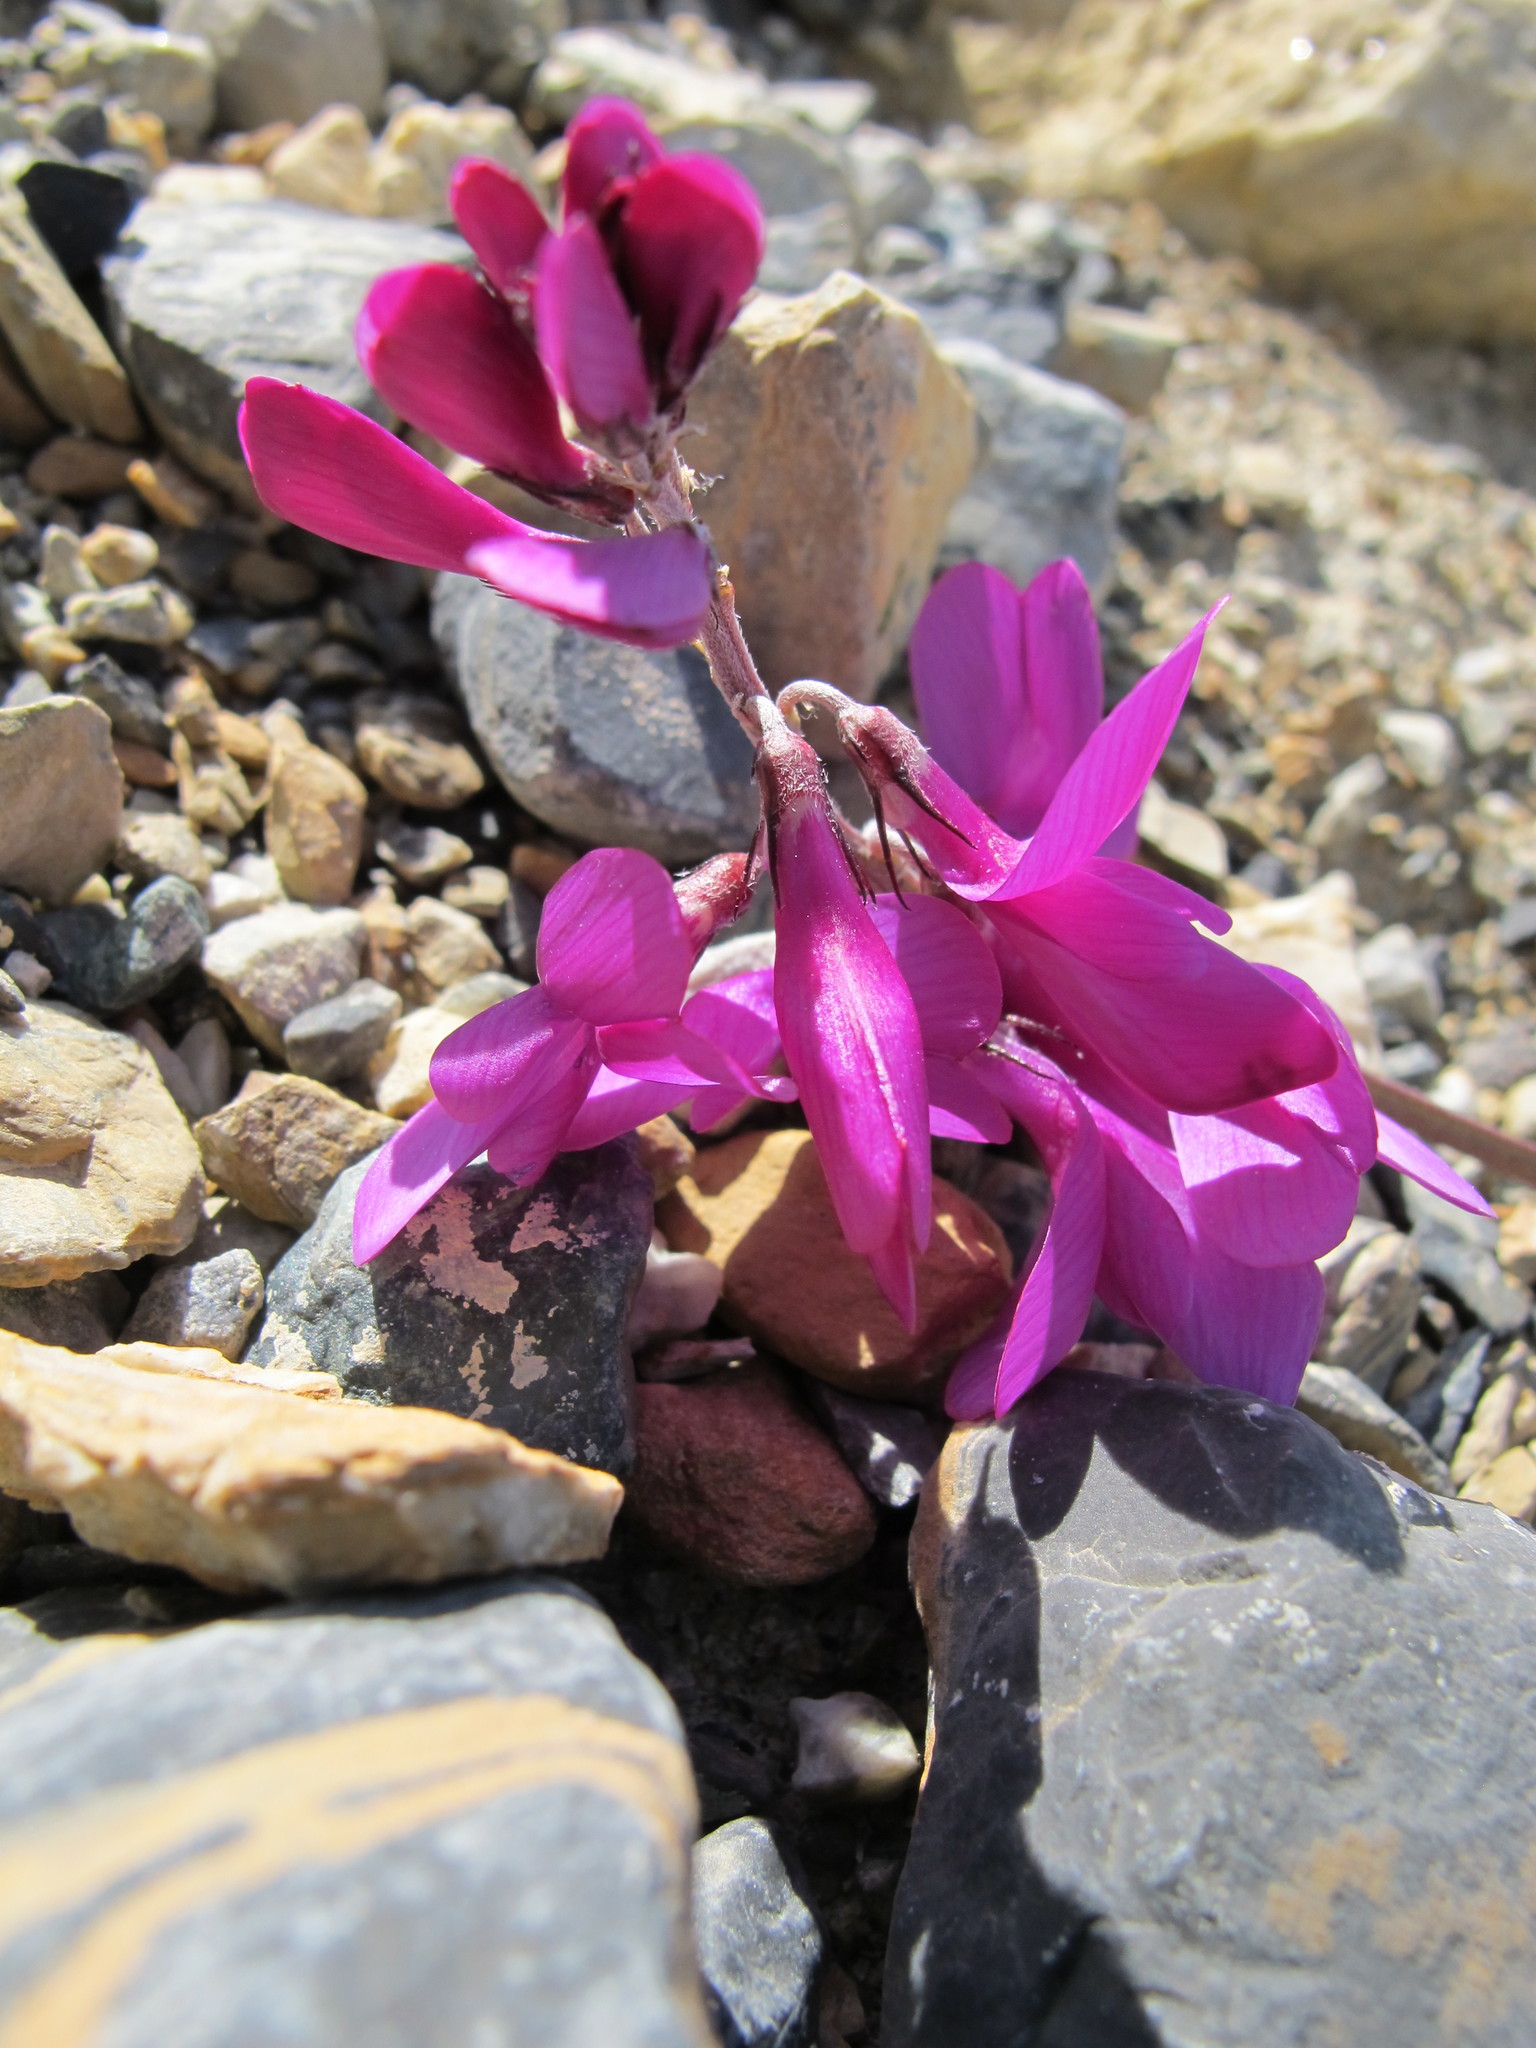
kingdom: Plantae
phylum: Tracheophyta
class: Magnoliopsida
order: Fabales
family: Fabaceae
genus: Hedysarum
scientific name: Hedysarum boreale
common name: Northern sweet-vetch
